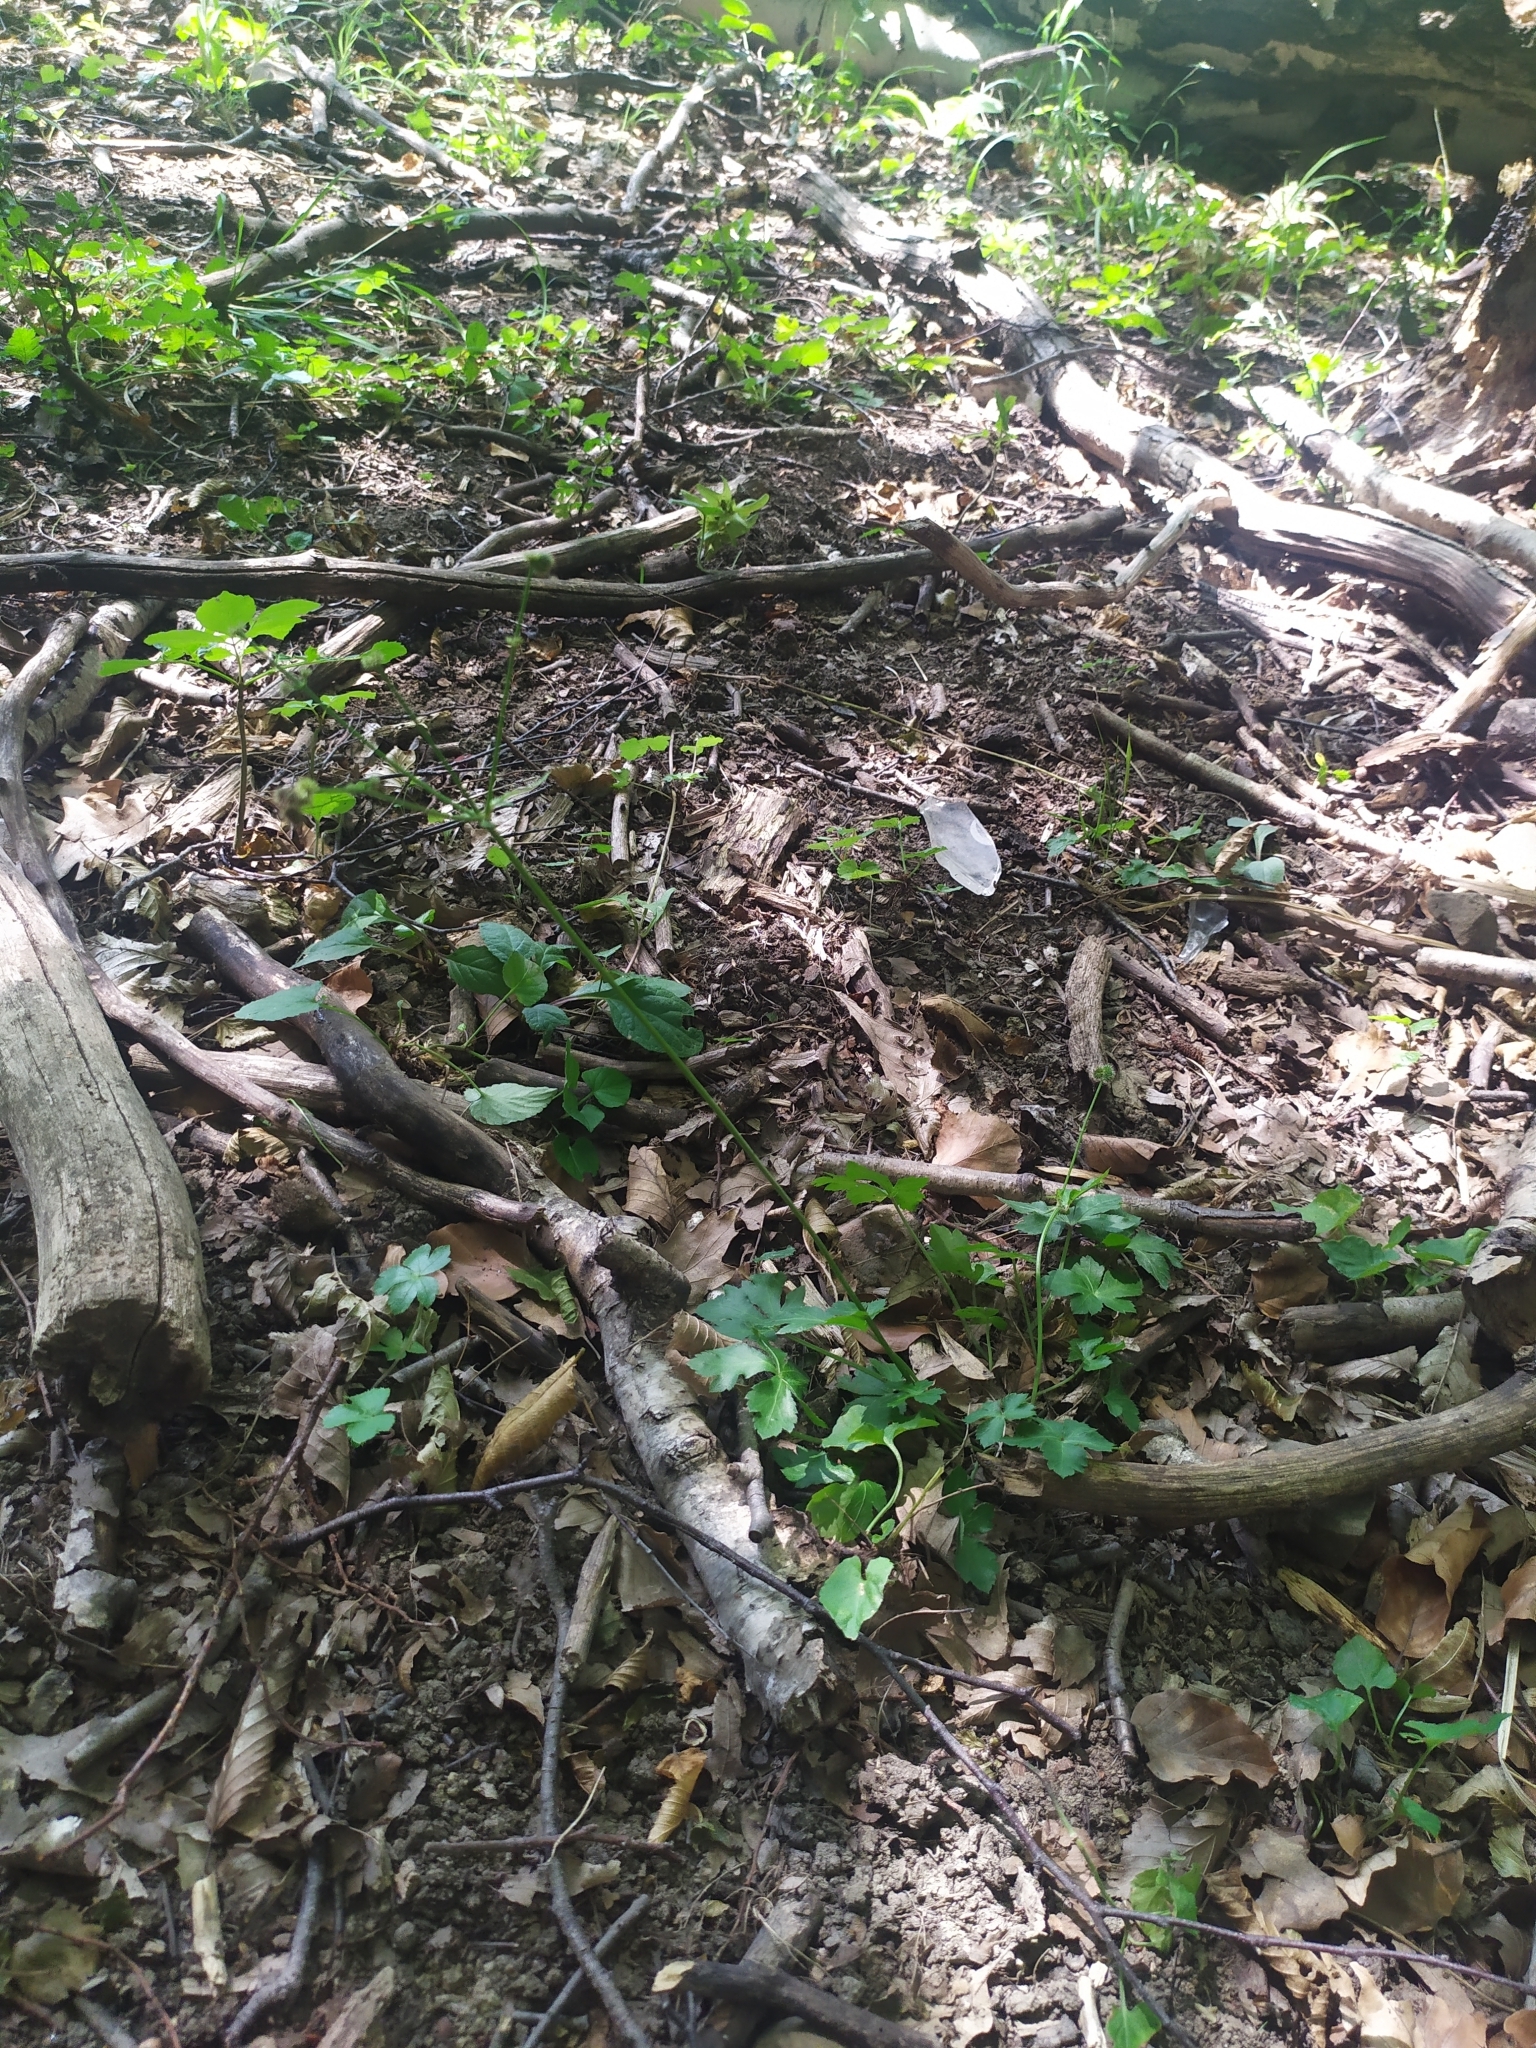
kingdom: Plantae
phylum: Tracheophyta
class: Magnoliopsida
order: Apiales
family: Apiaceae
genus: Sanicula
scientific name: Sanicula europaea
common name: Sanicle
